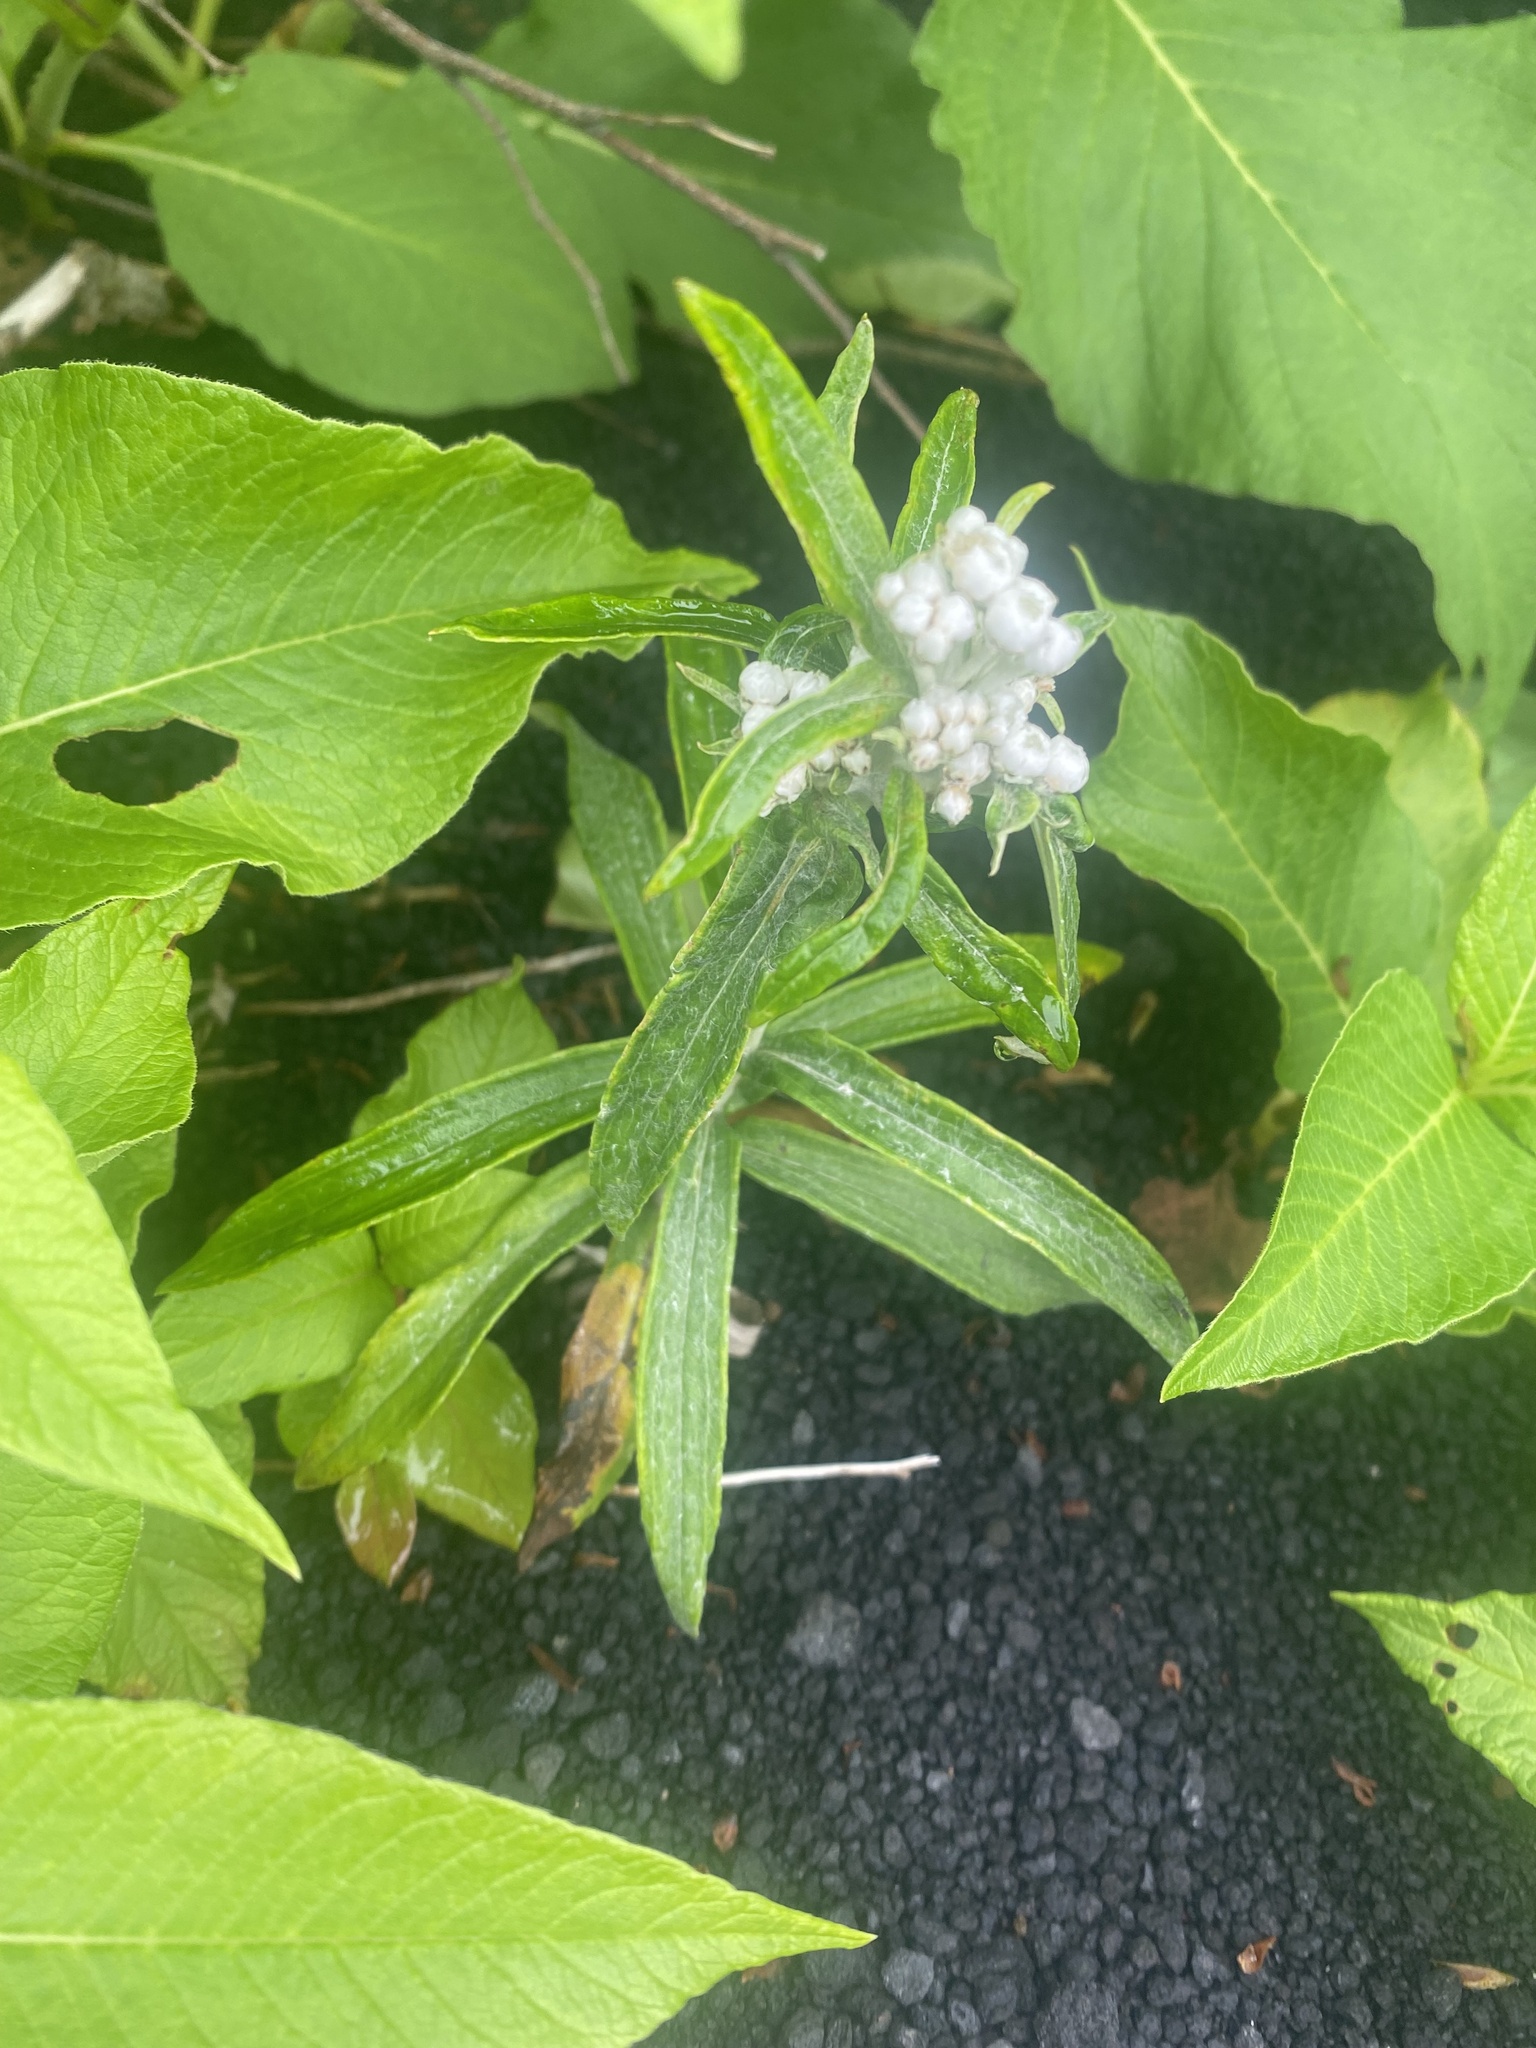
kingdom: Plantae
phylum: Tracheophyta
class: Magnoliopsida
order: Asterales
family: Asteraceae
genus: Anaphalis
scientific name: Anaphalis margaritacea
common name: Pearly everlasting
